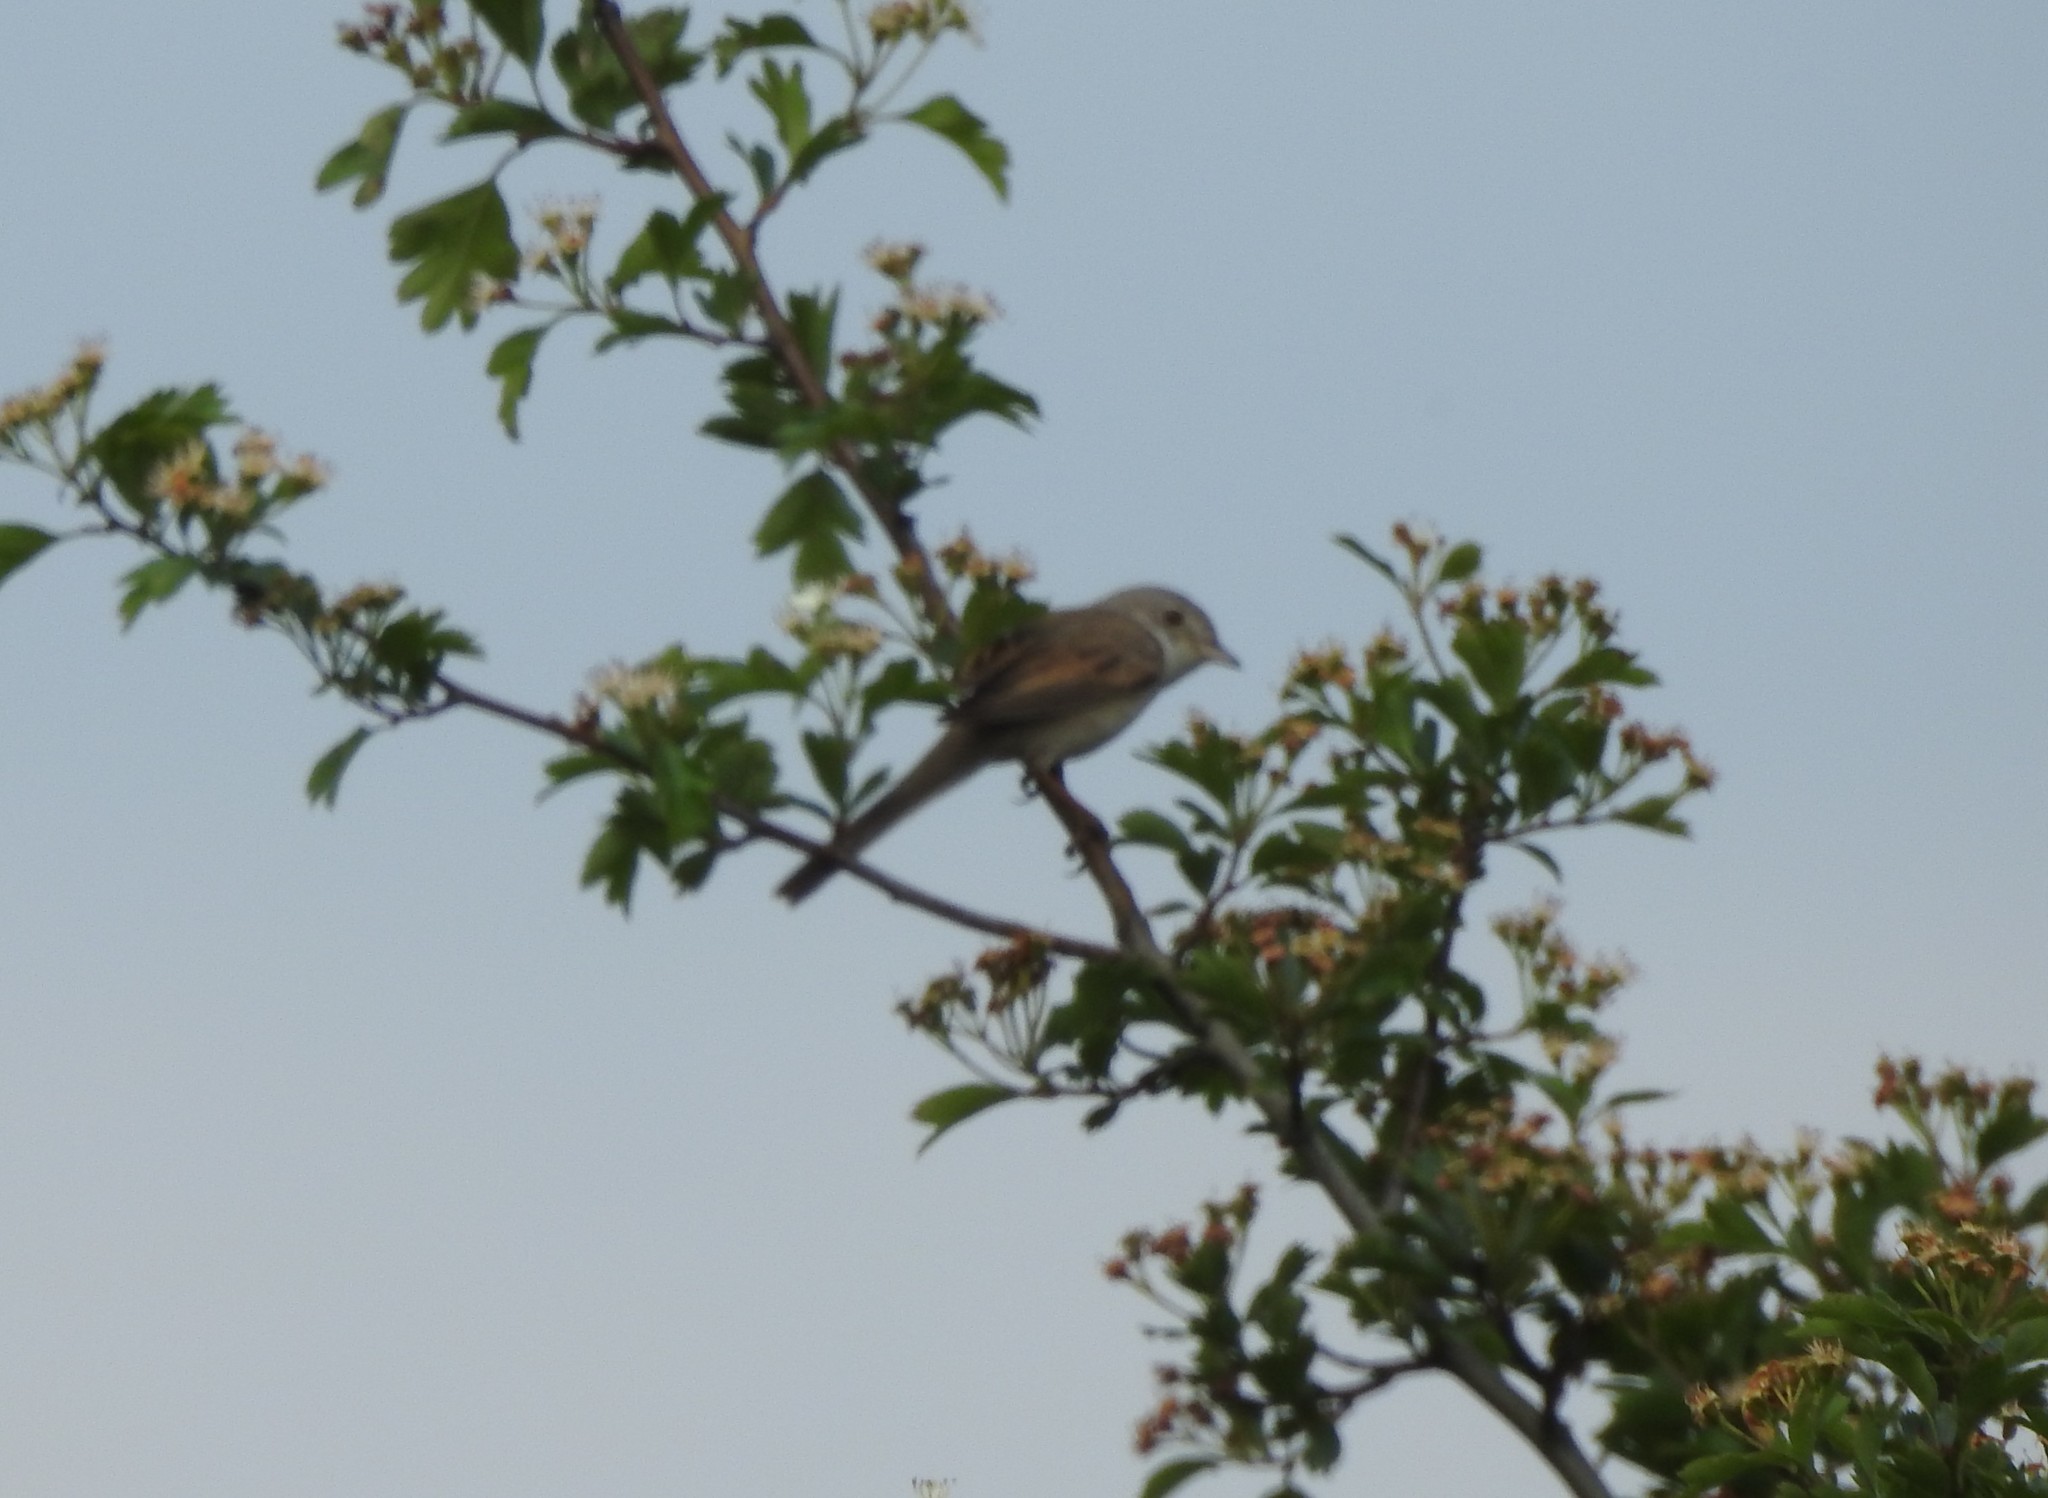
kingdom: Animalia
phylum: Chordata
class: Aves
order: Passeriformes
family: Sylviidae
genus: Sylvia
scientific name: Sylvia communis
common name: Common whitethroat
